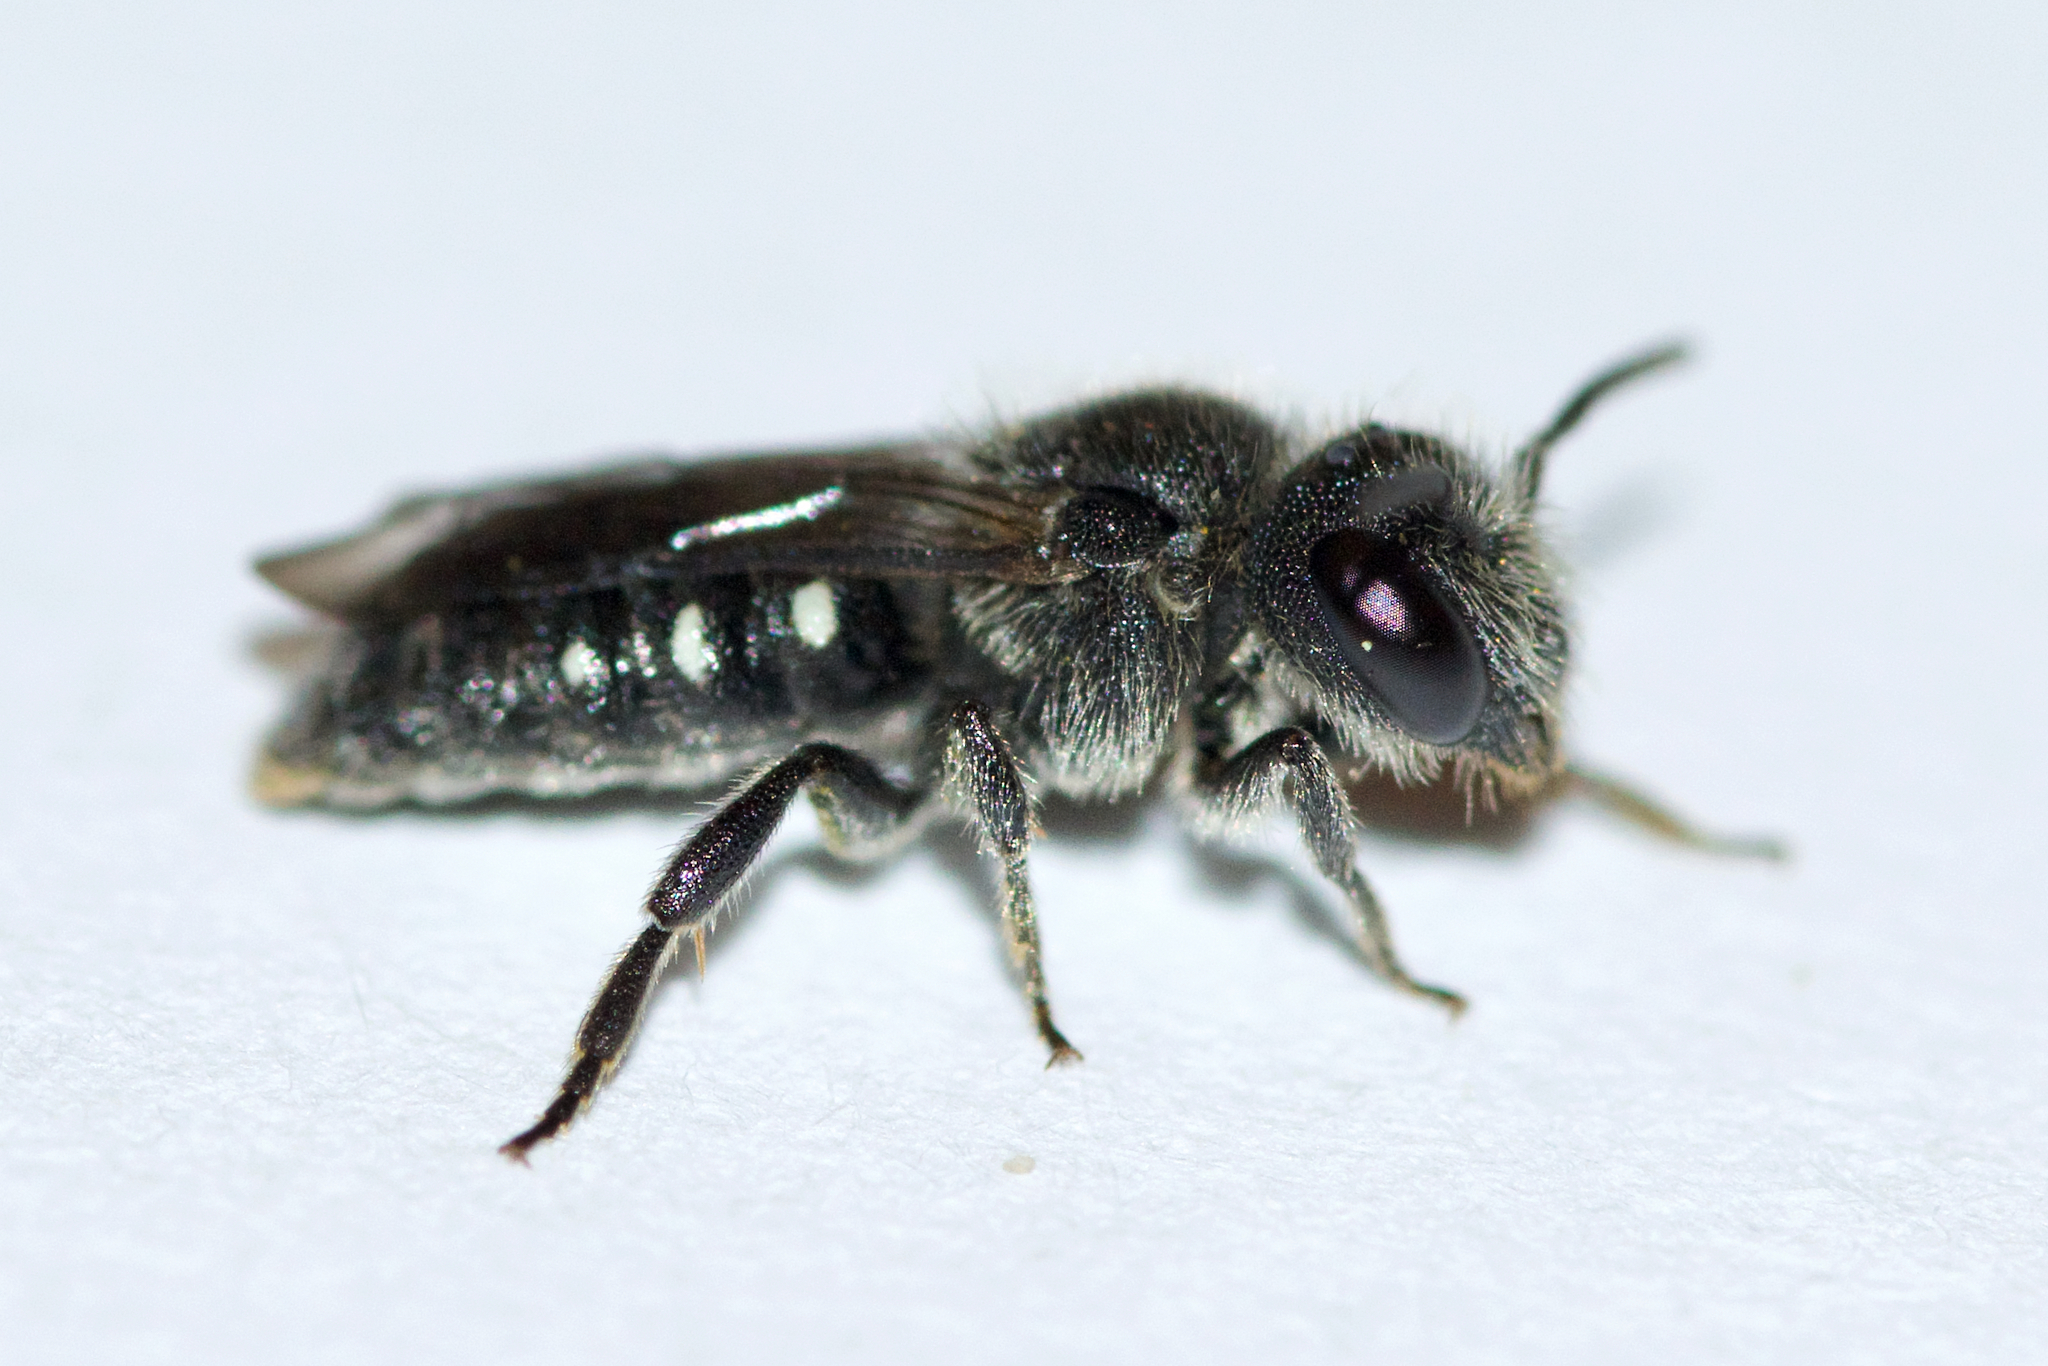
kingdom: Animalia
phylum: Arthropoda
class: Insecta
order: Hymenoptera
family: Megachilidae
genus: Stelis
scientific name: Stelis lateralis
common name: Spot-sided dark bee
